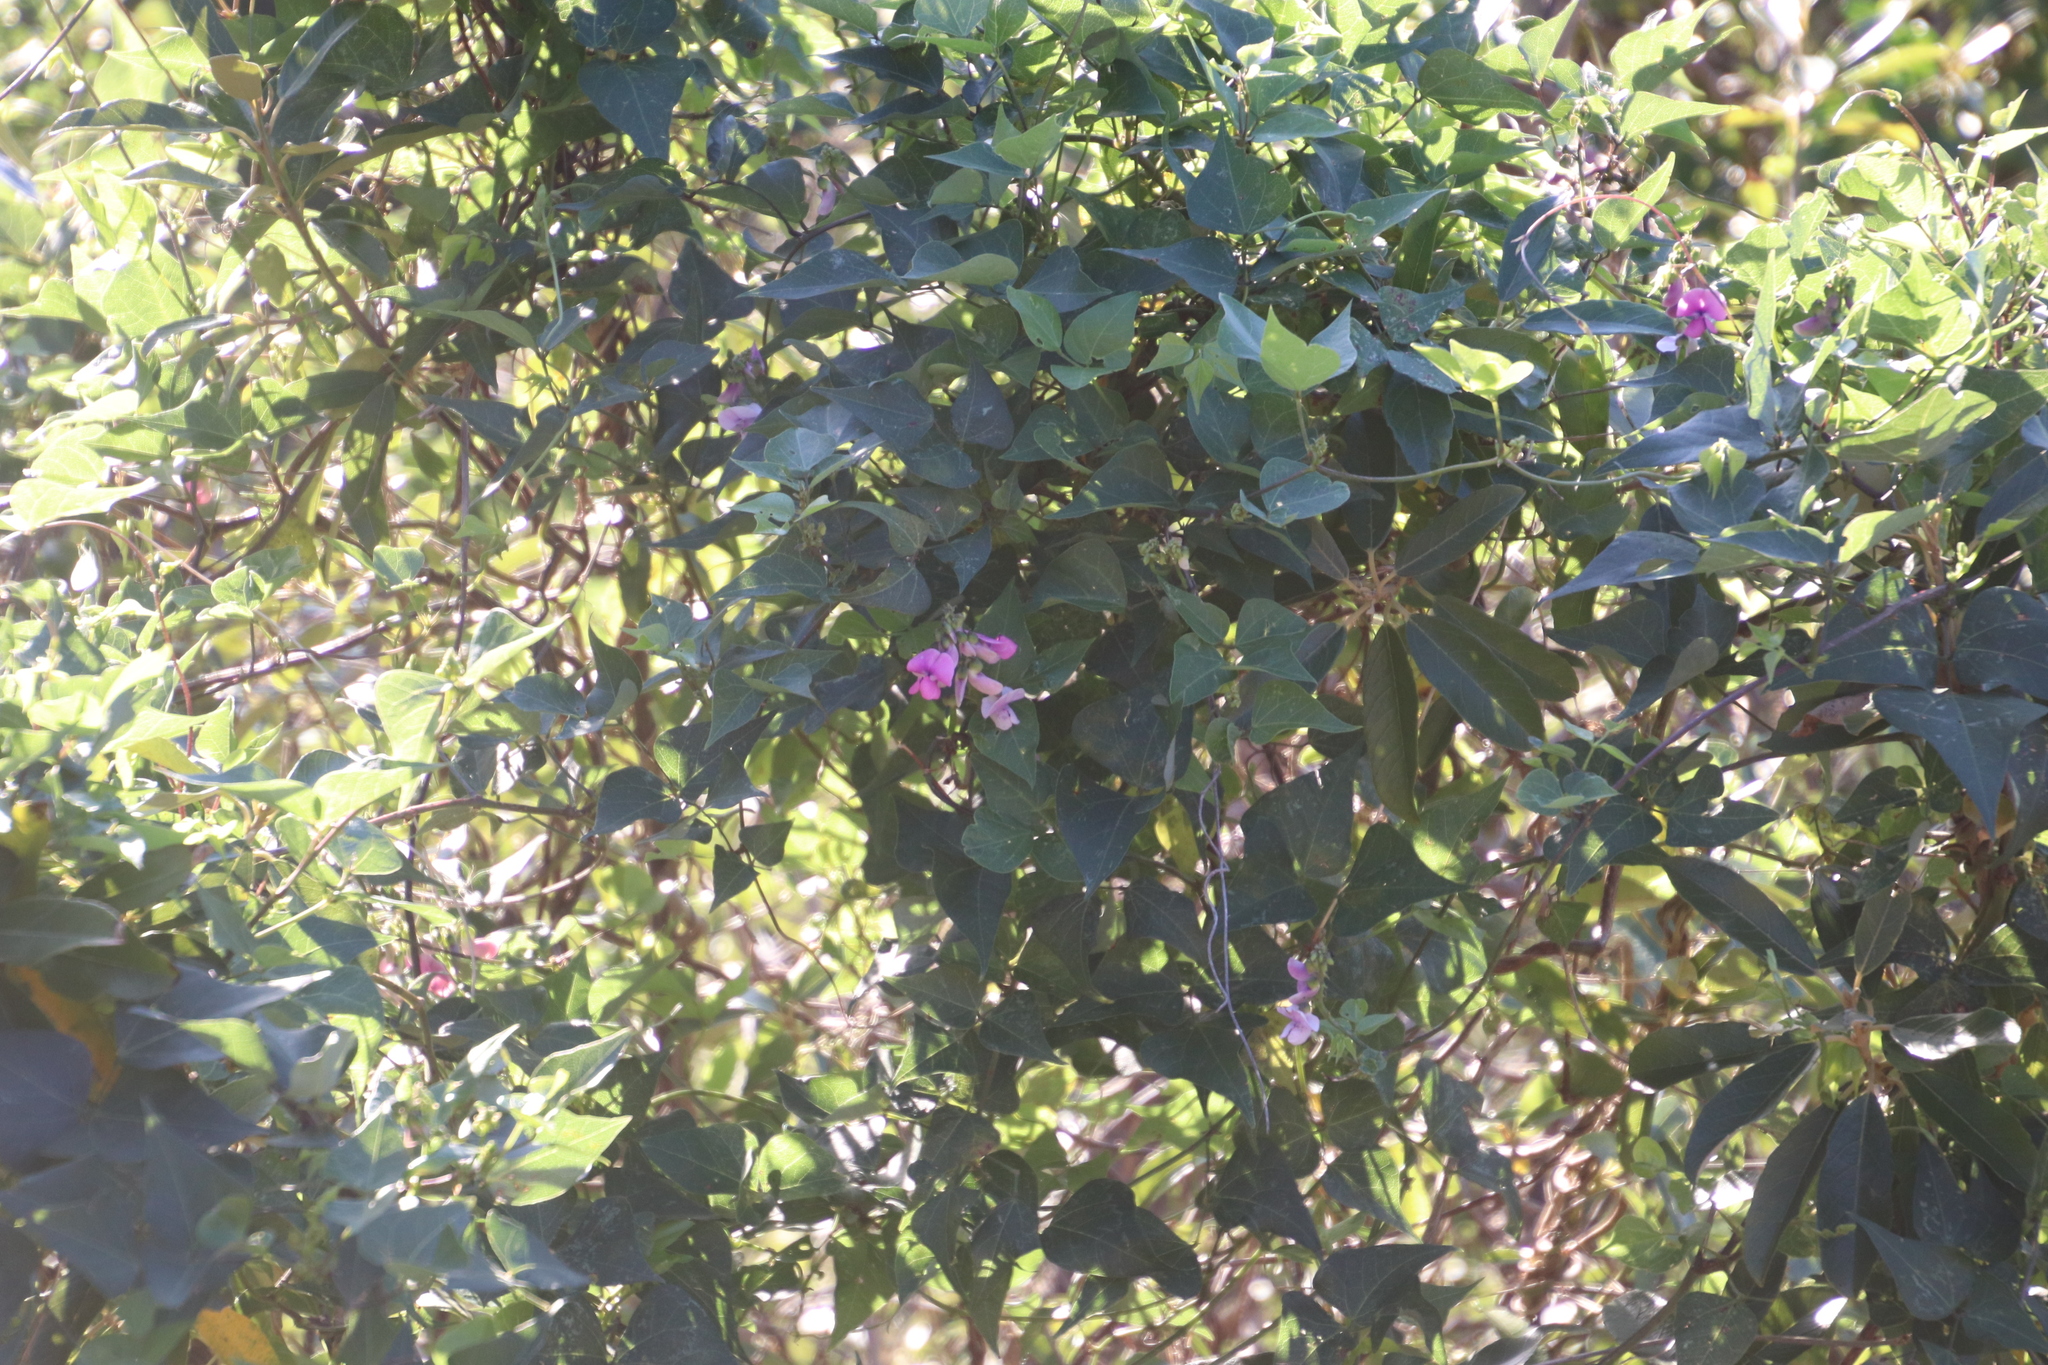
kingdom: Plantae
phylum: Tracheophyta
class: Magnoliopsida
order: Fabales
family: Fabaceae
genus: Dipogon
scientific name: Dipogon lignosus
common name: Okie bean
